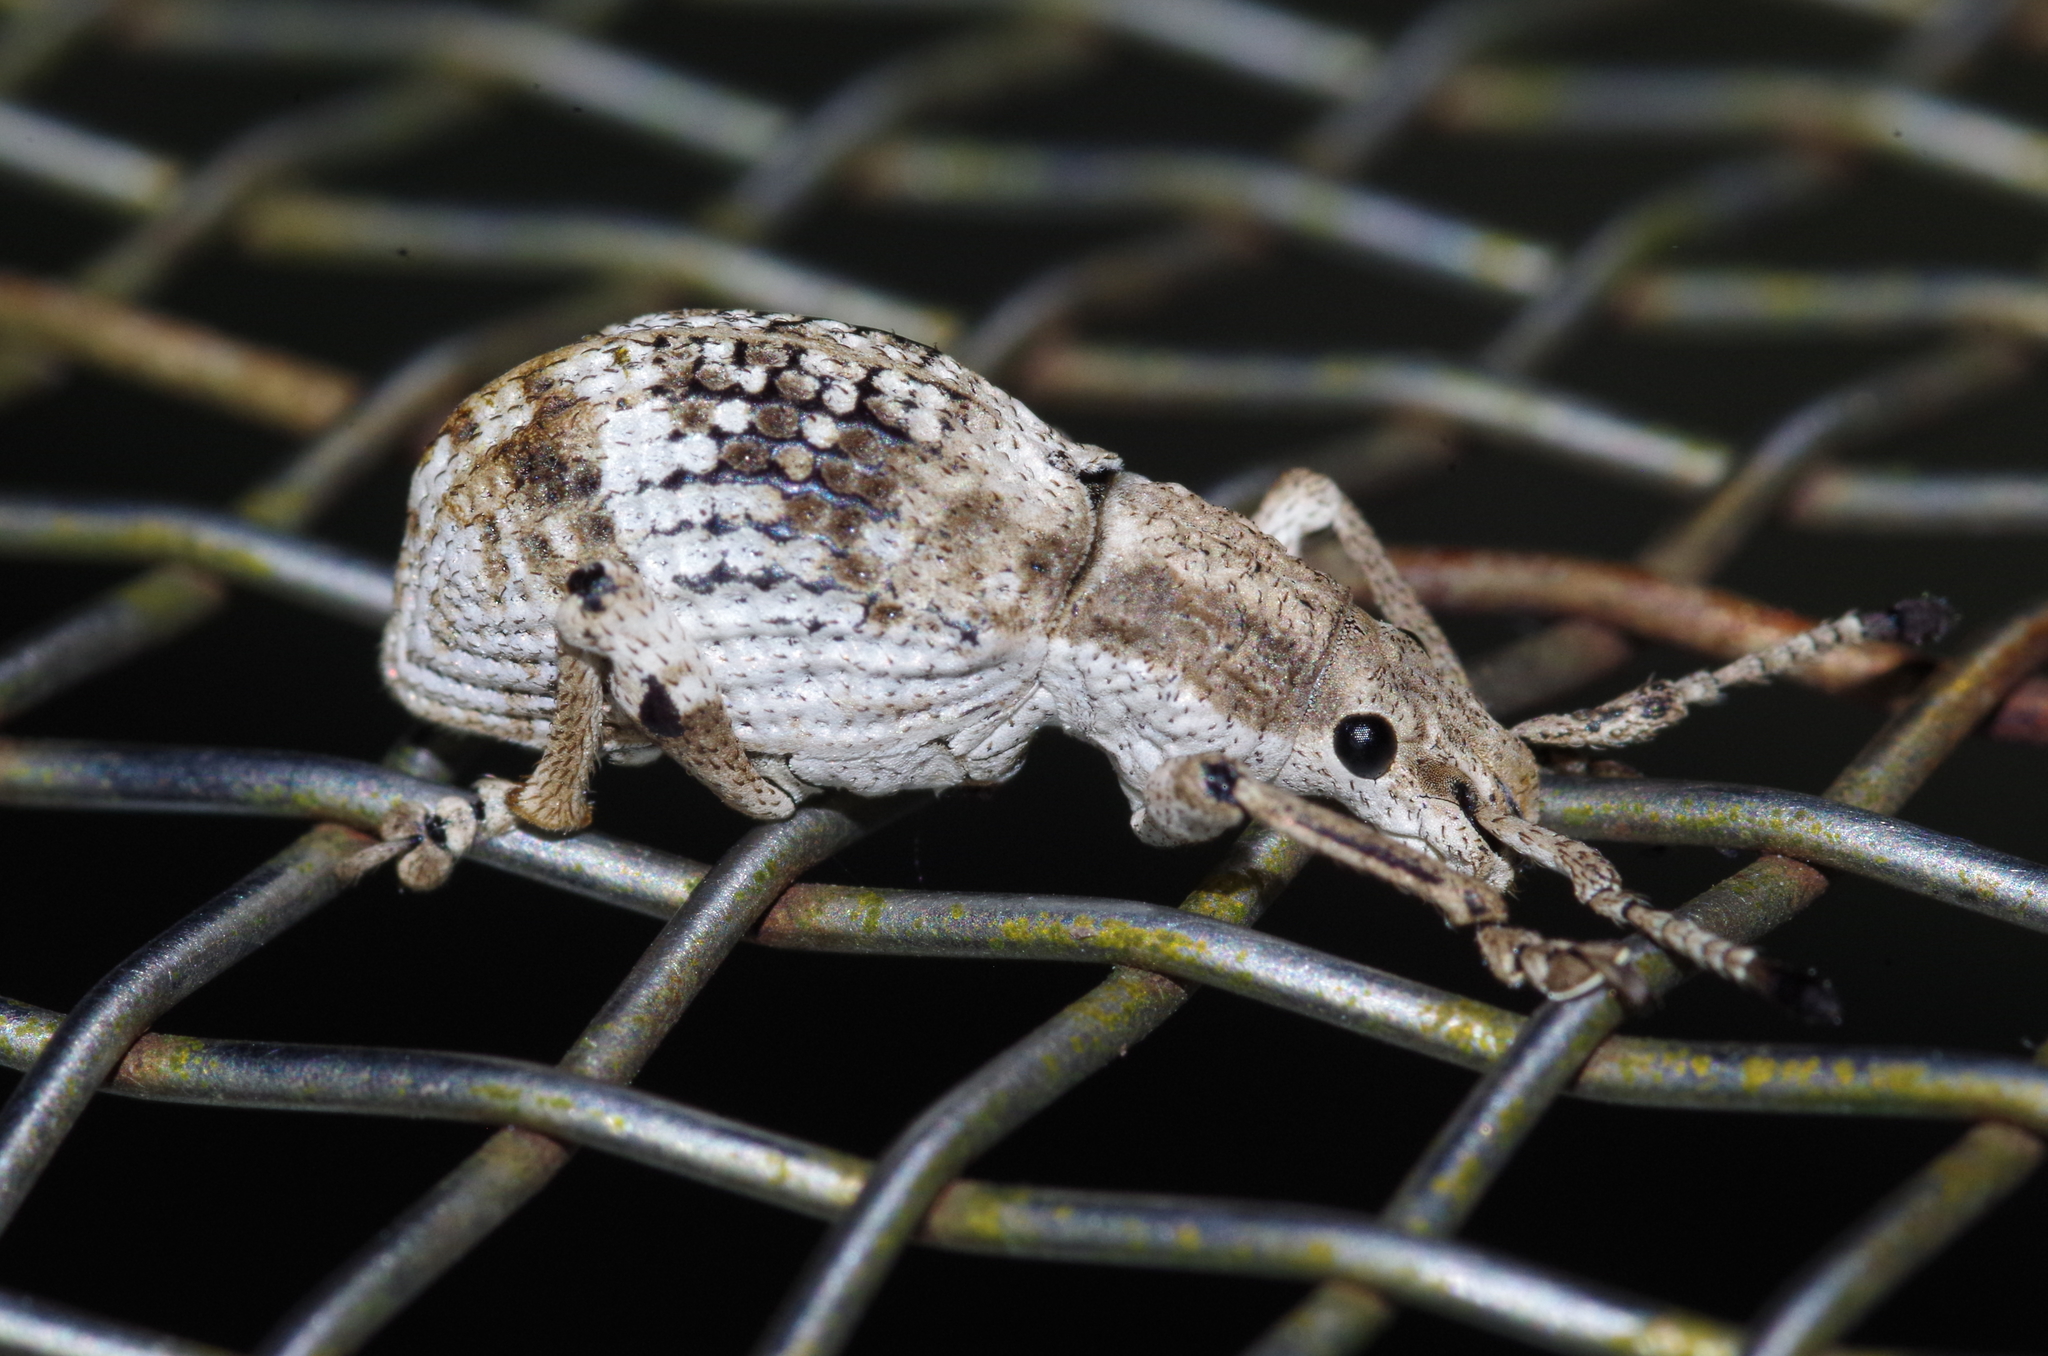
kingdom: Animalia
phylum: Arthropoda
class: Insecta
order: Coleoptera
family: Curculionidae
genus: Episomus
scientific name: Episomus mori
